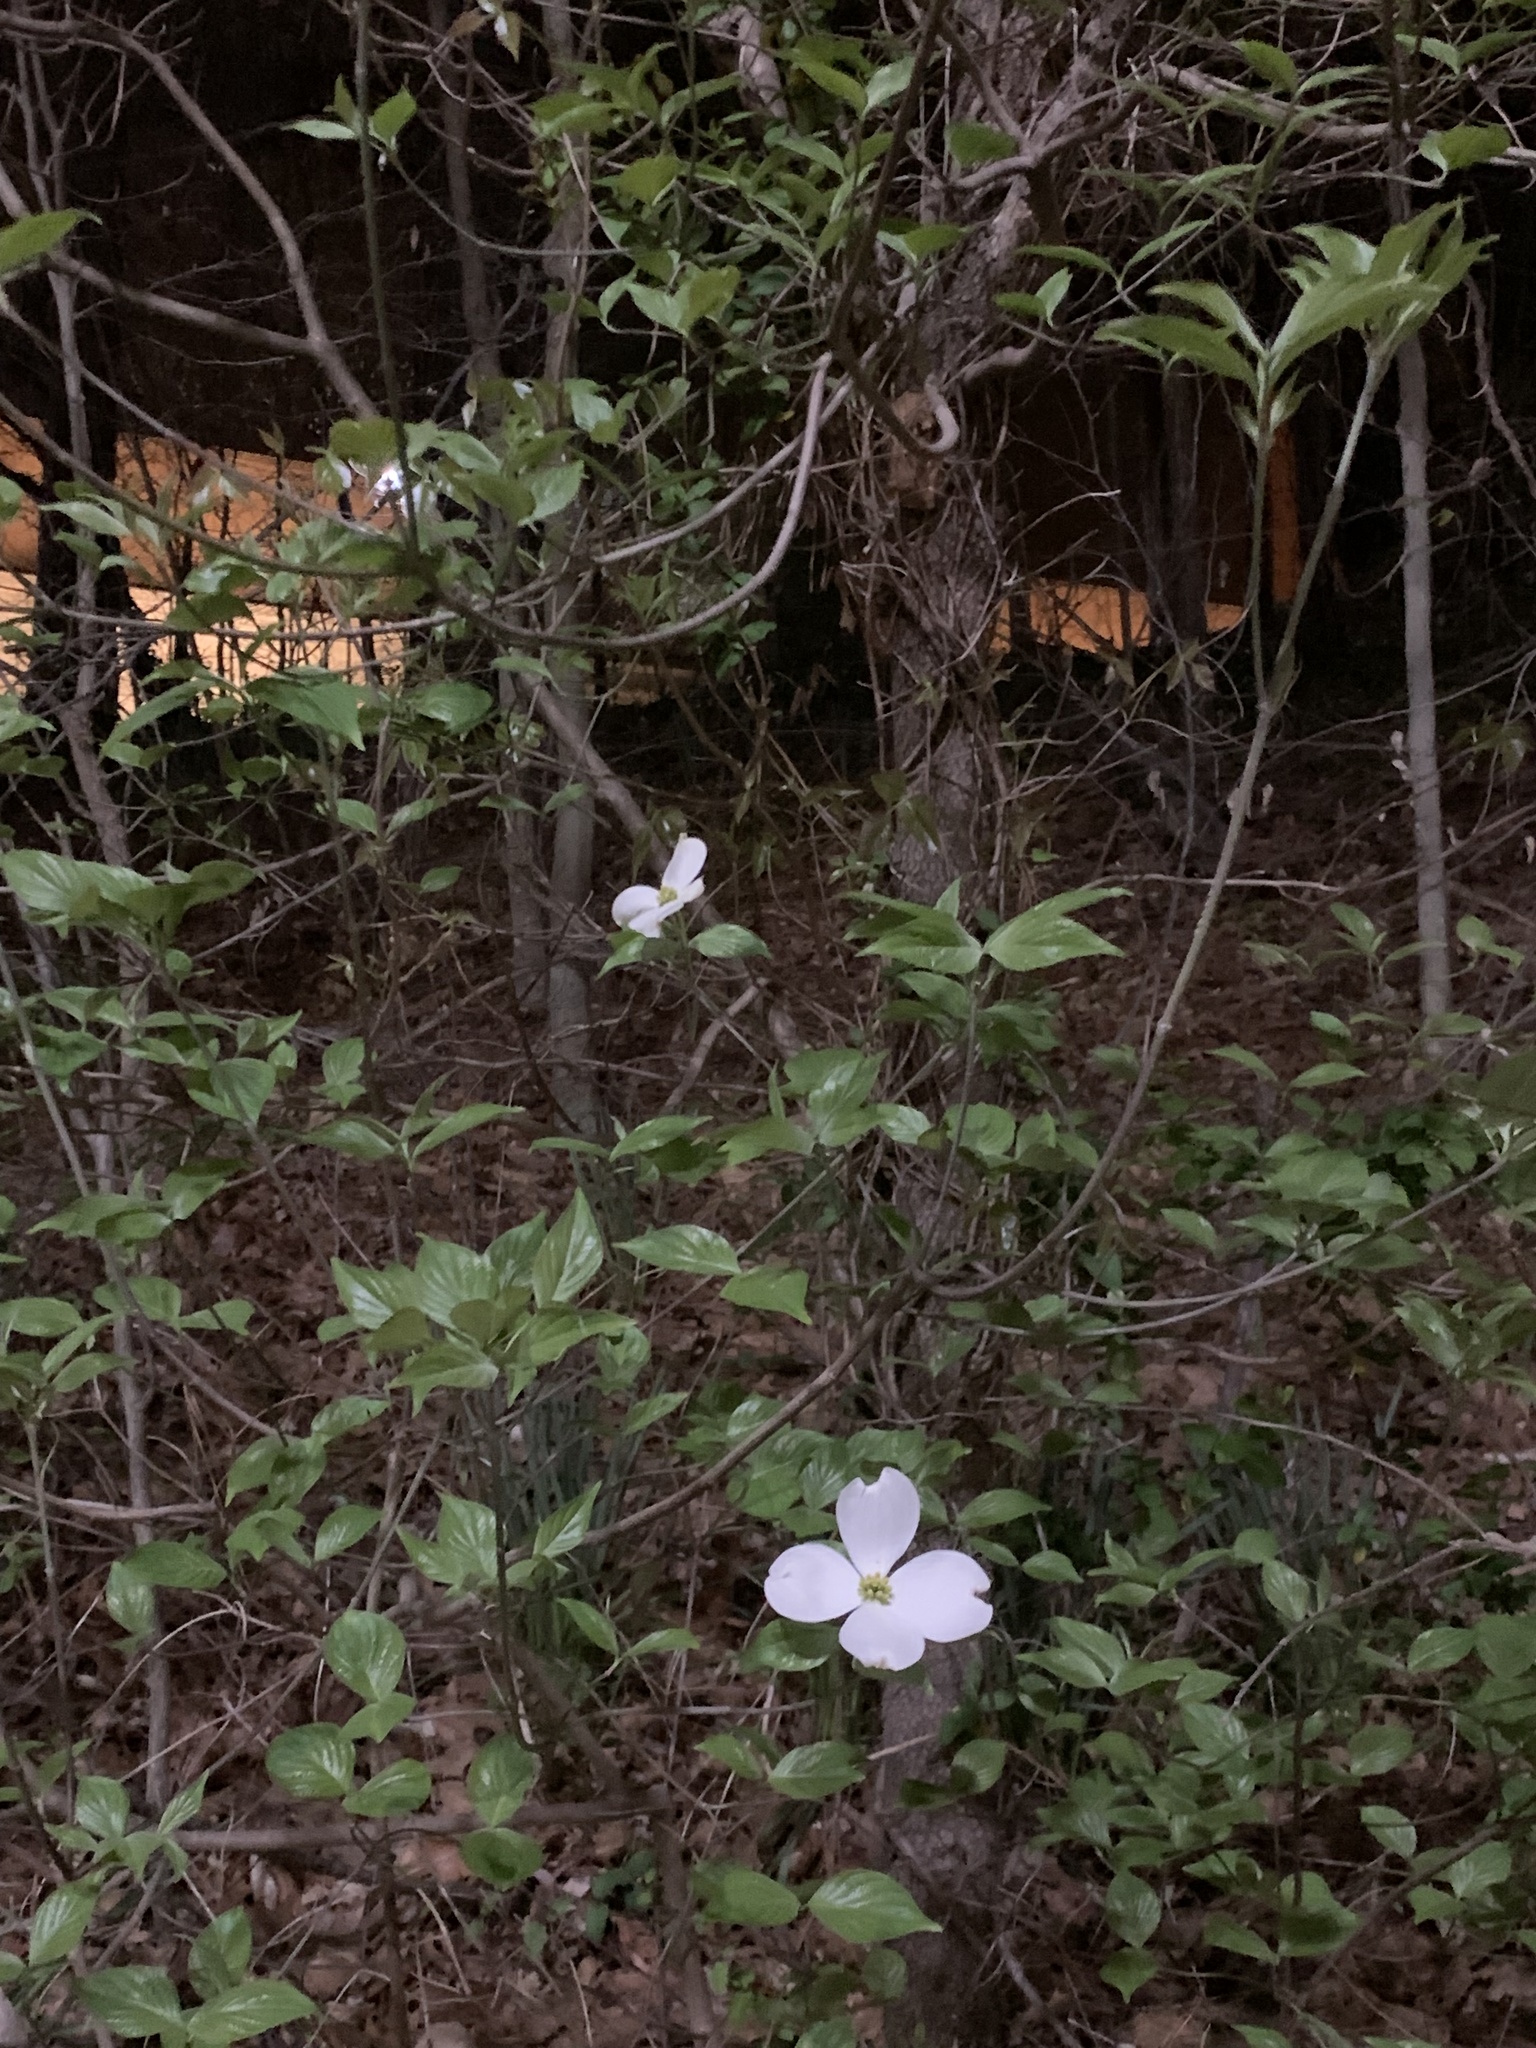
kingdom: Plantae
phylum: Tracheophyta
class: Magnoliopsida
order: Cornales
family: Cornaceae
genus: Cornus
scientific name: Cornus florida
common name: Flowering dogwood
